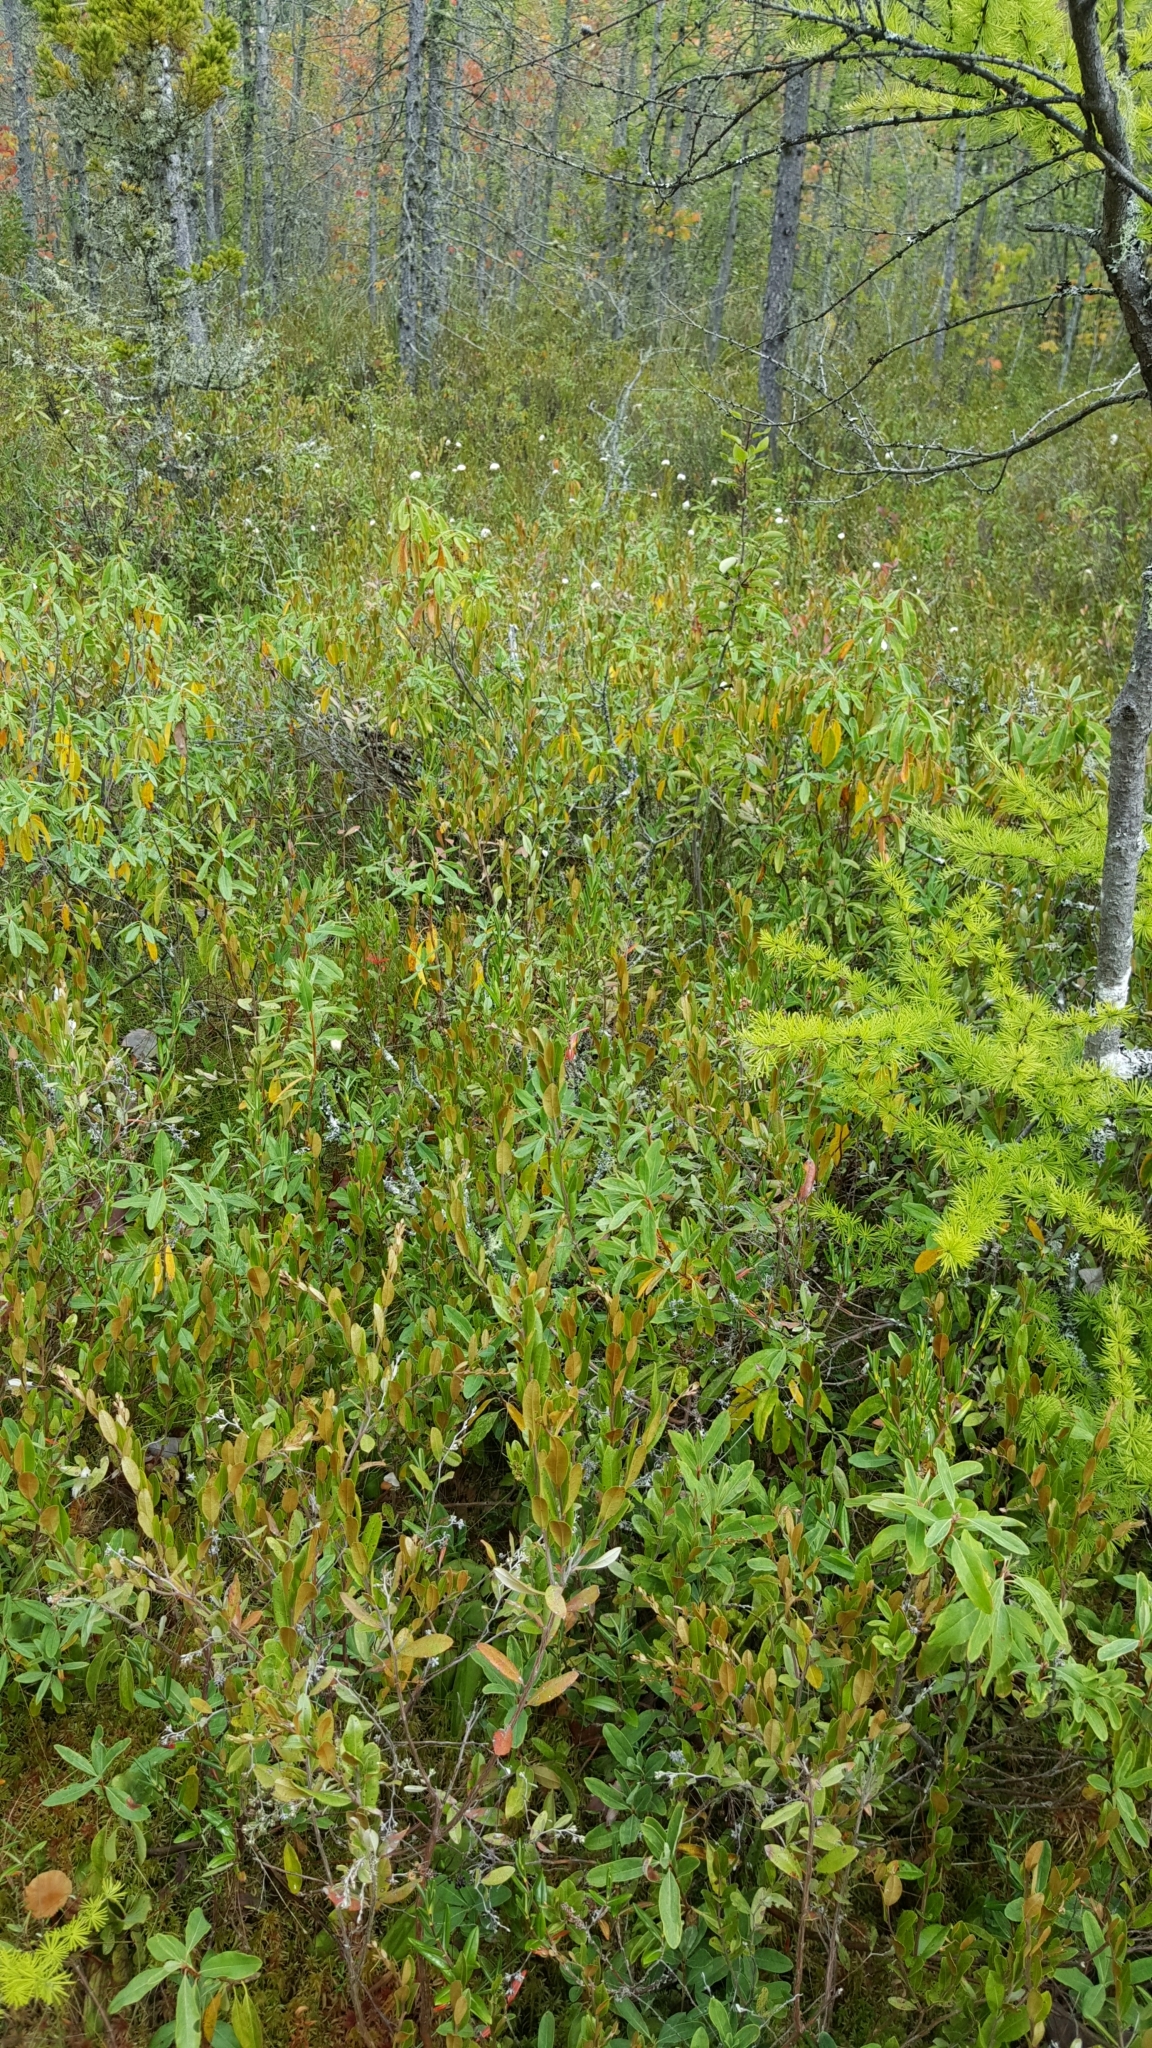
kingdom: Plantae
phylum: Tracheophyta
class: Liliopsida
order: Poales
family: Cyperaceae
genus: Eriophorum
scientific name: Eriophorum virginicum
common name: Tawny cottongrass
